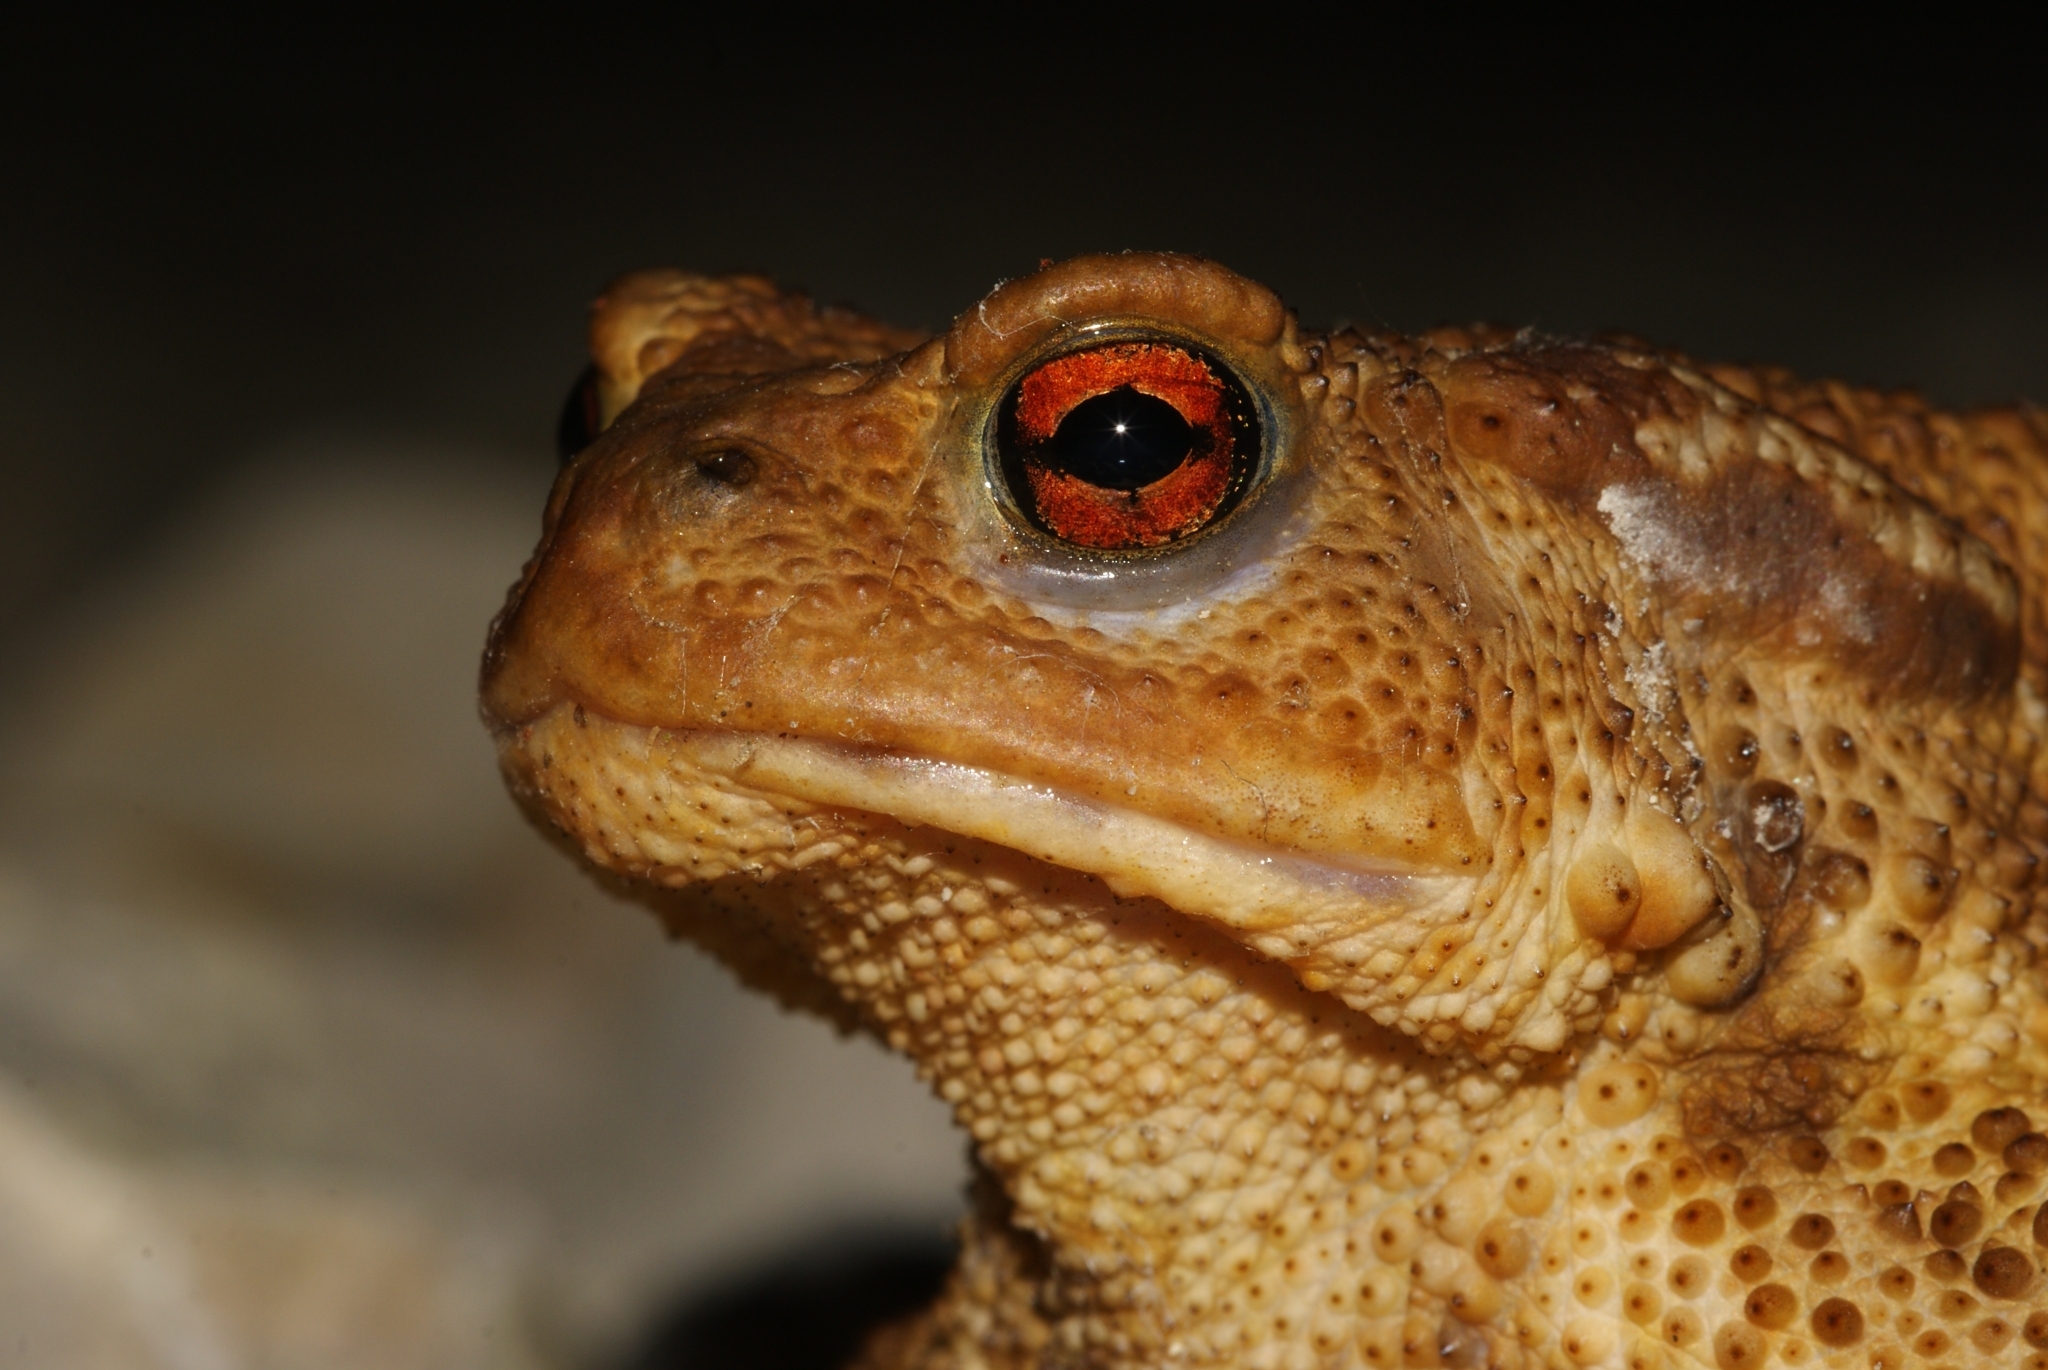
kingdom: Animalia
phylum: Chordata
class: Amphibia
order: Anura
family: Bufonidae
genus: Bufo
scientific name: Bufo spinosus
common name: Western common toad
